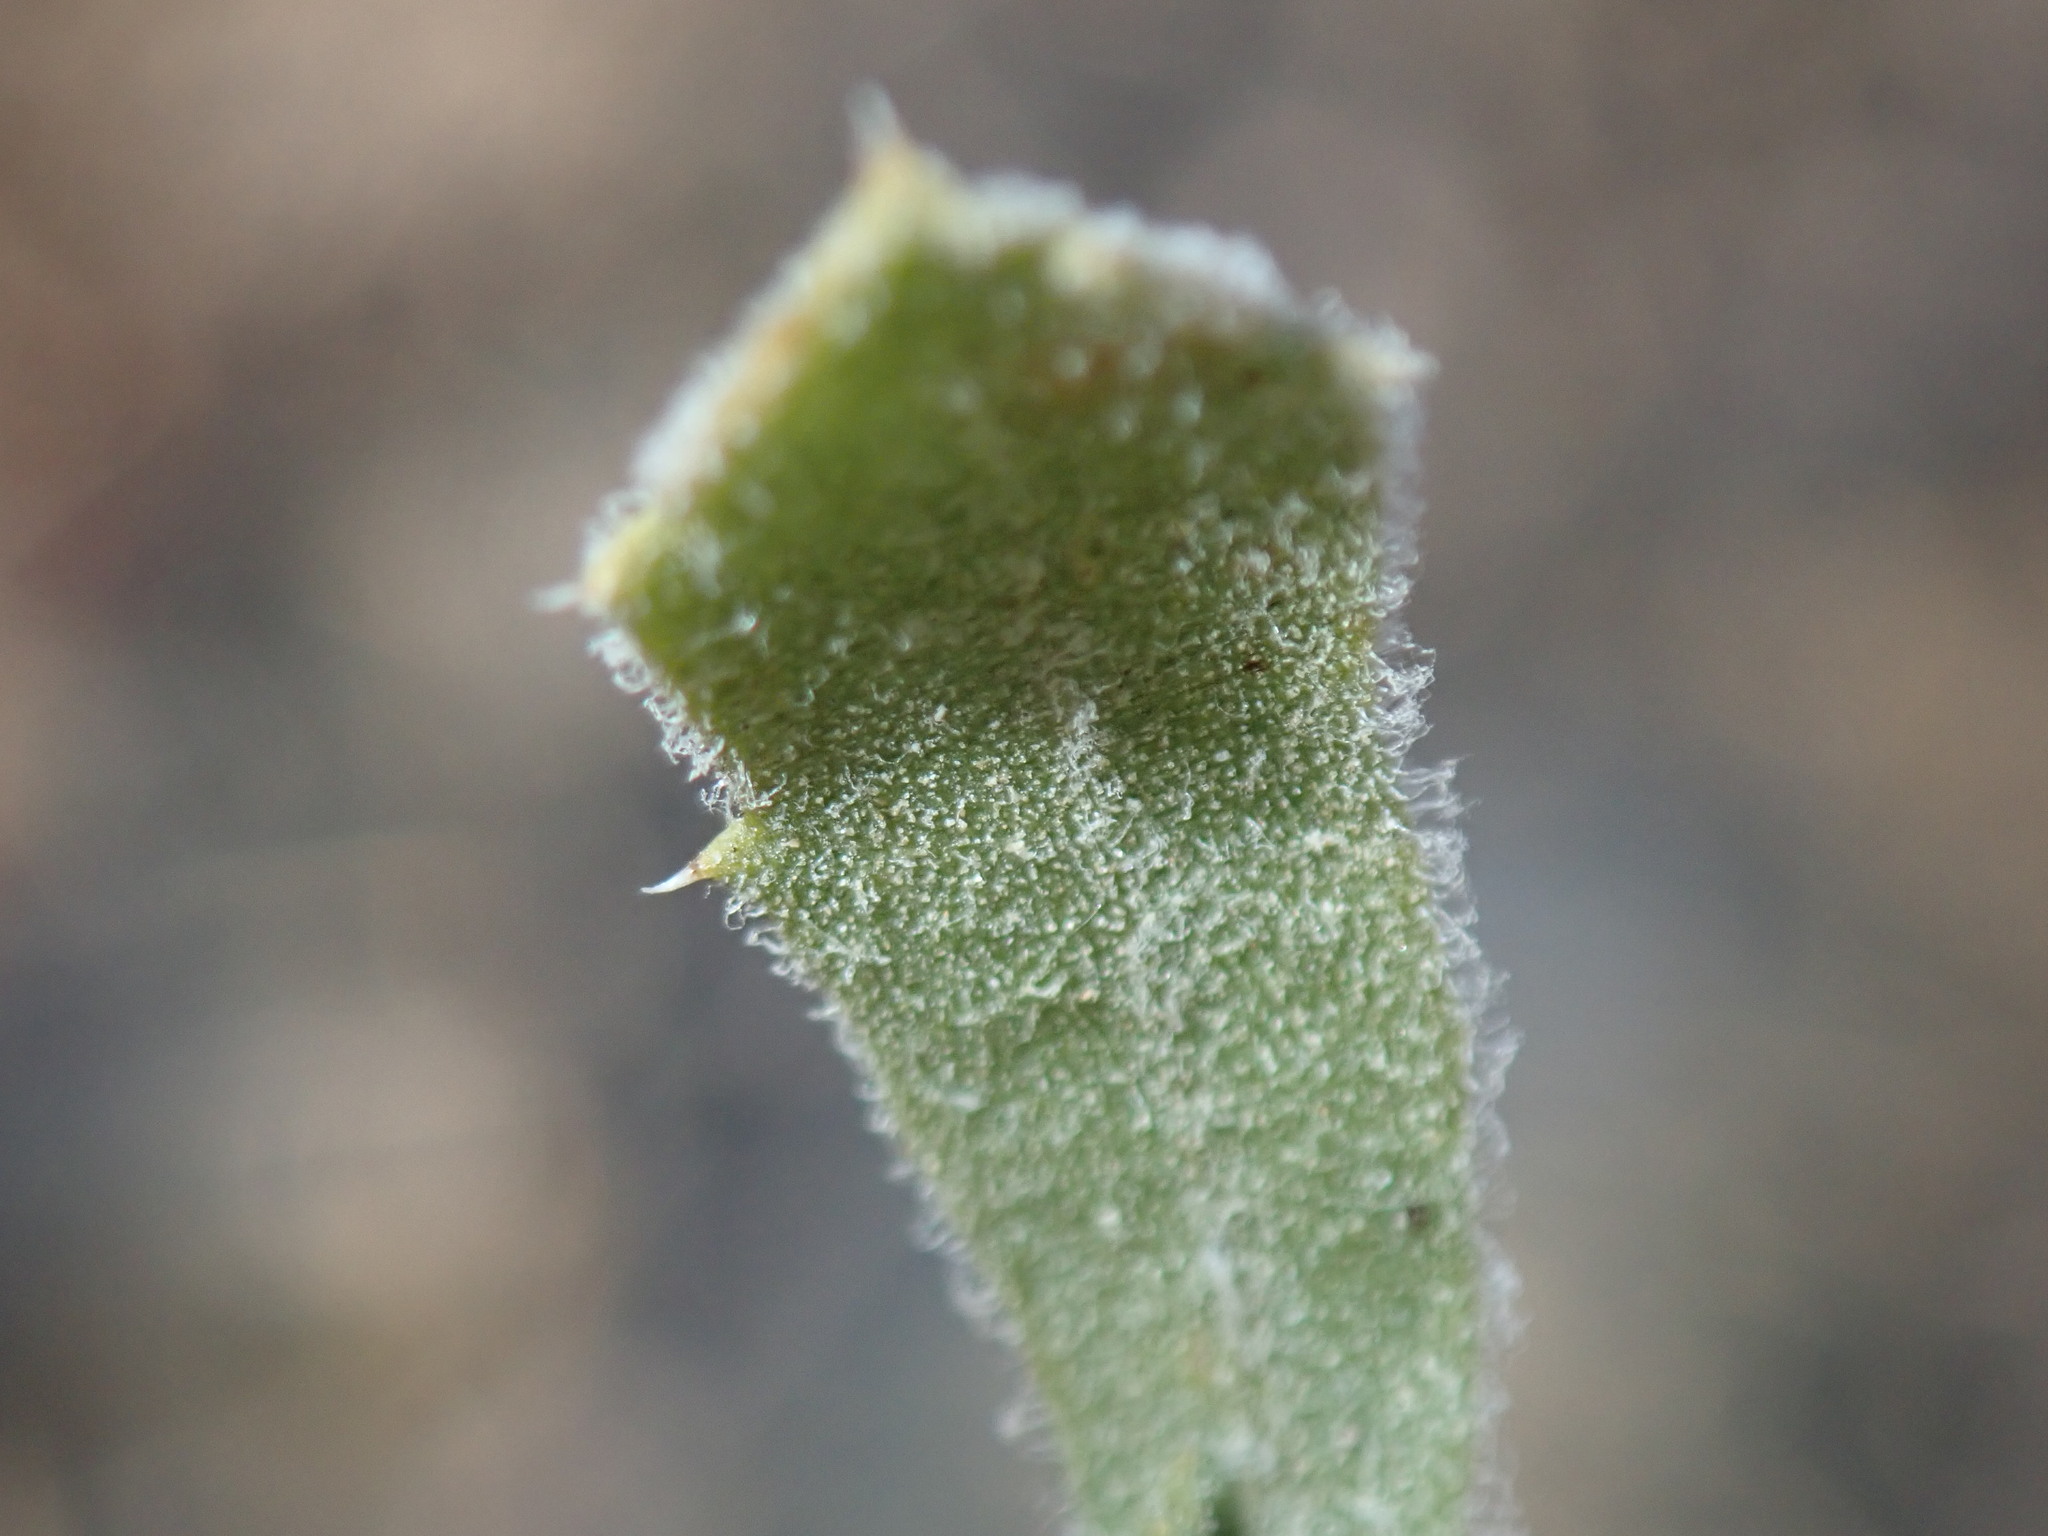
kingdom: Plantae
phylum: Tracheophyta
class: Magnoliopsida
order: Asterales
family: Asteraceae
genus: Isocoma
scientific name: Isocoma menziesii
